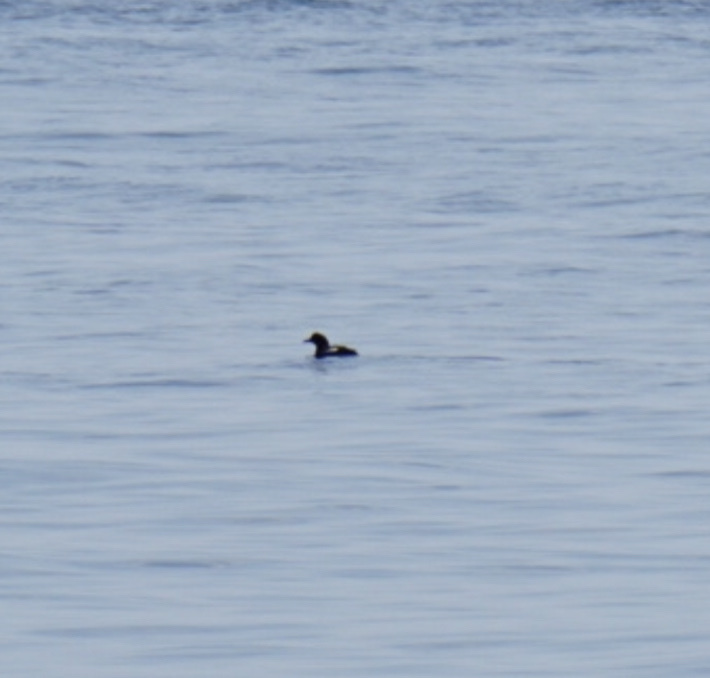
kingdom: Animalia
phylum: Chordata
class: Aves
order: Charadriiformes
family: Alcidae
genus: Cepphus
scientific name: Cepphus columba
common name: Pigeon guillemot
